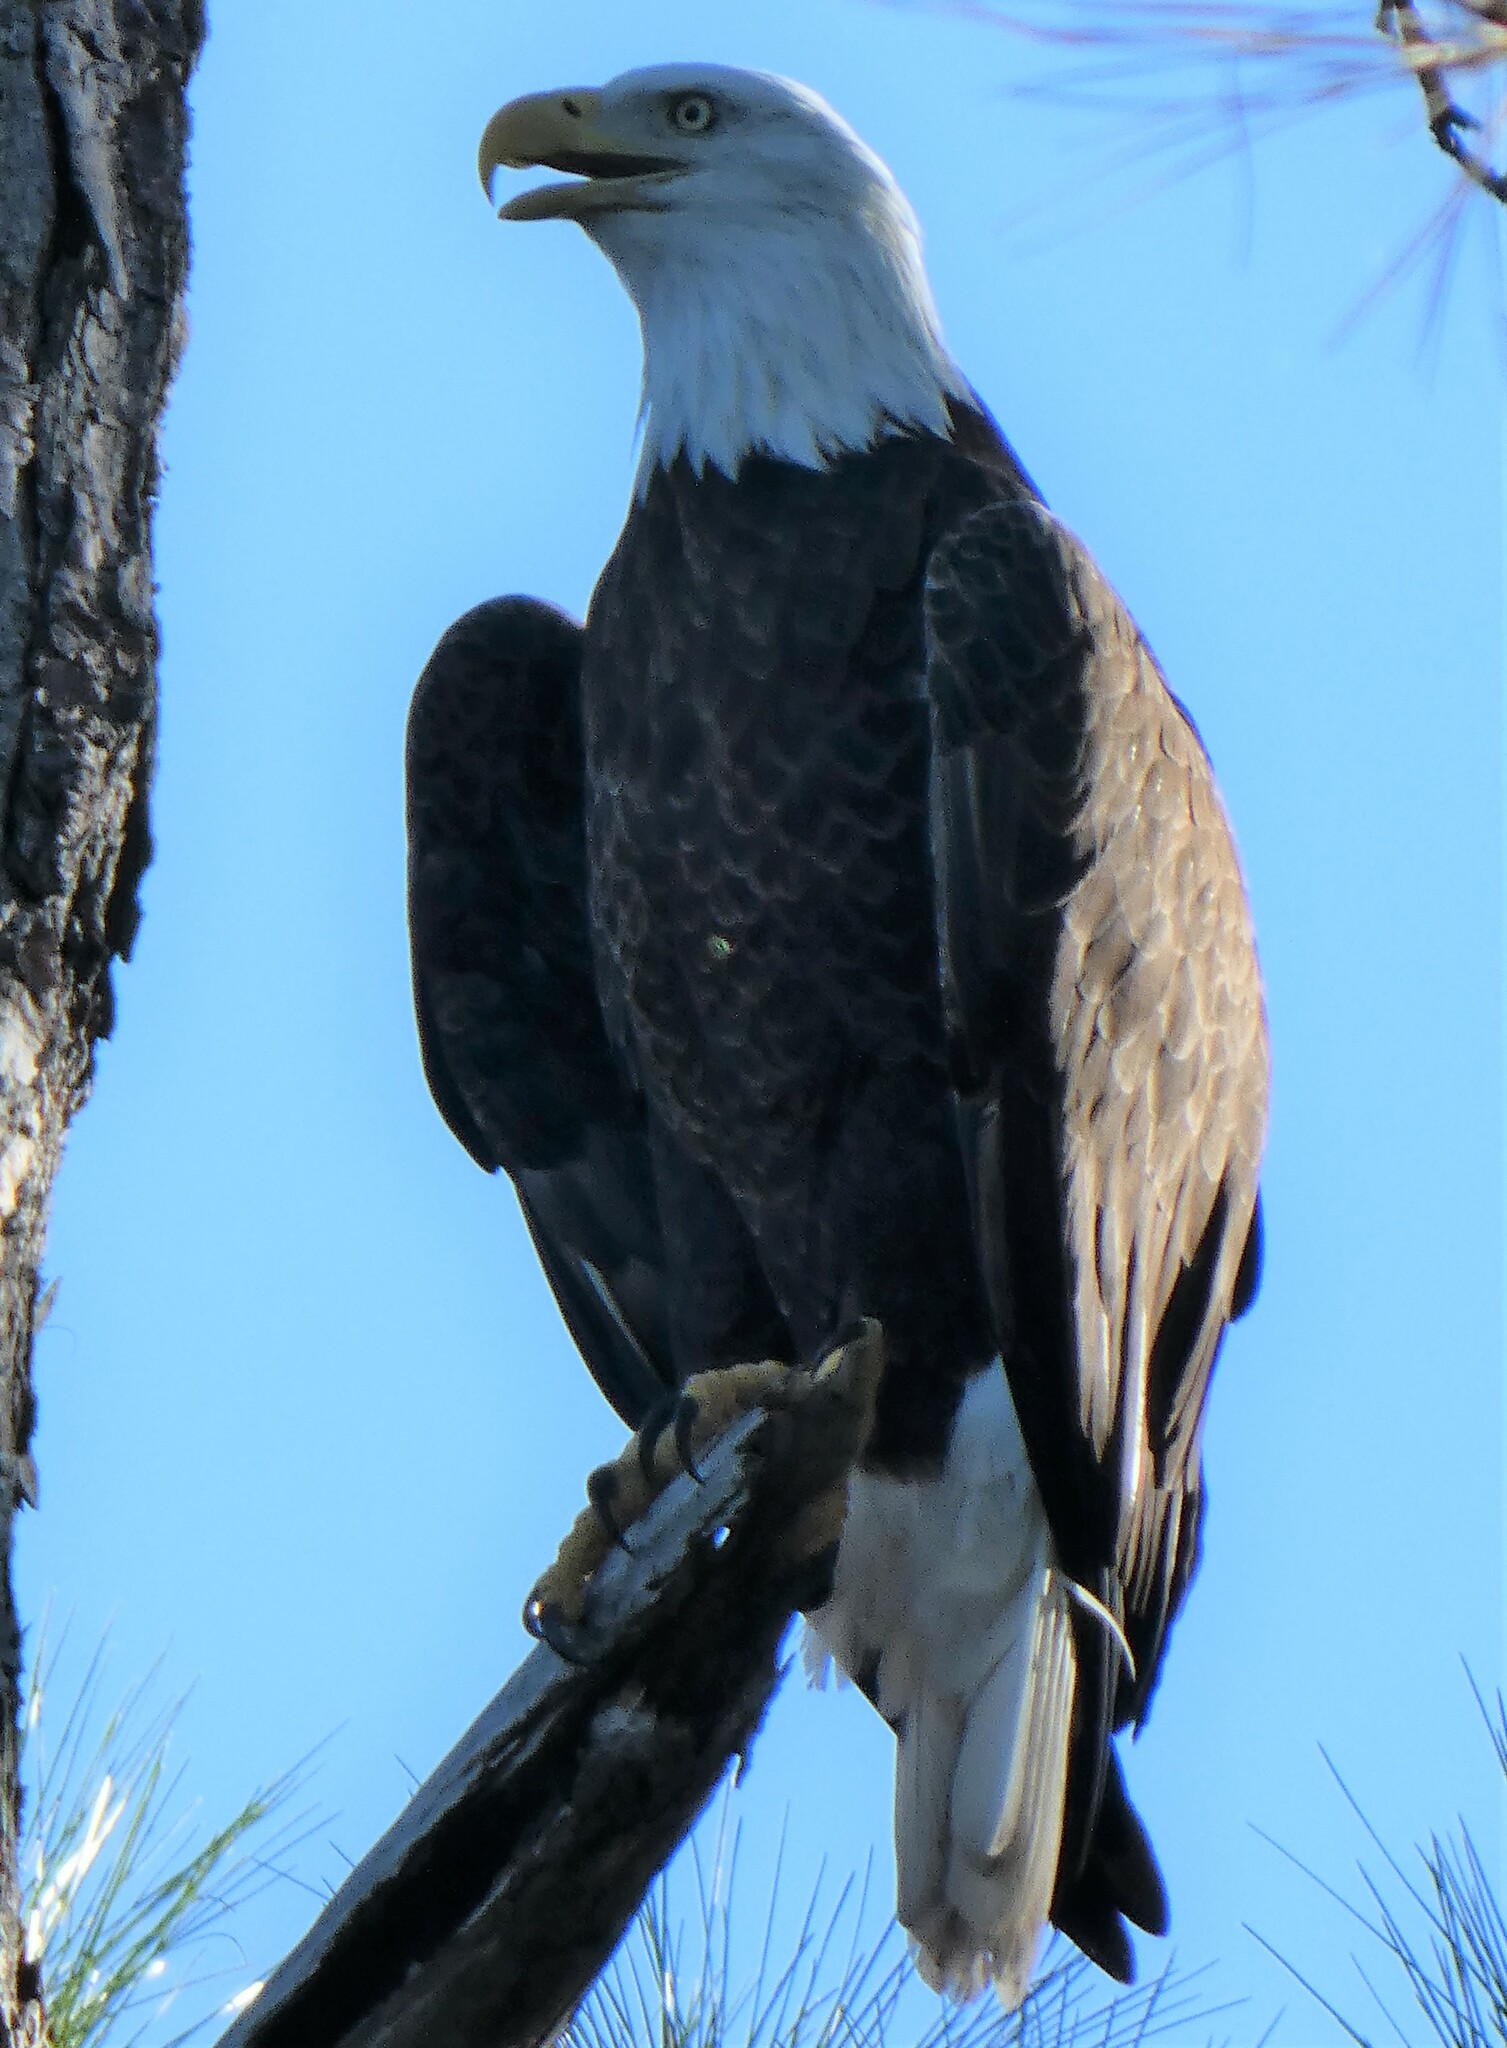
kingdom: Animalia
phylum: Chordata
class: Aves
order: Accipitriformes
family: Accipitridae
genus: Haliaeetus
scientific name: Haliaeetus leucocephalus
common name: Bald eagle
